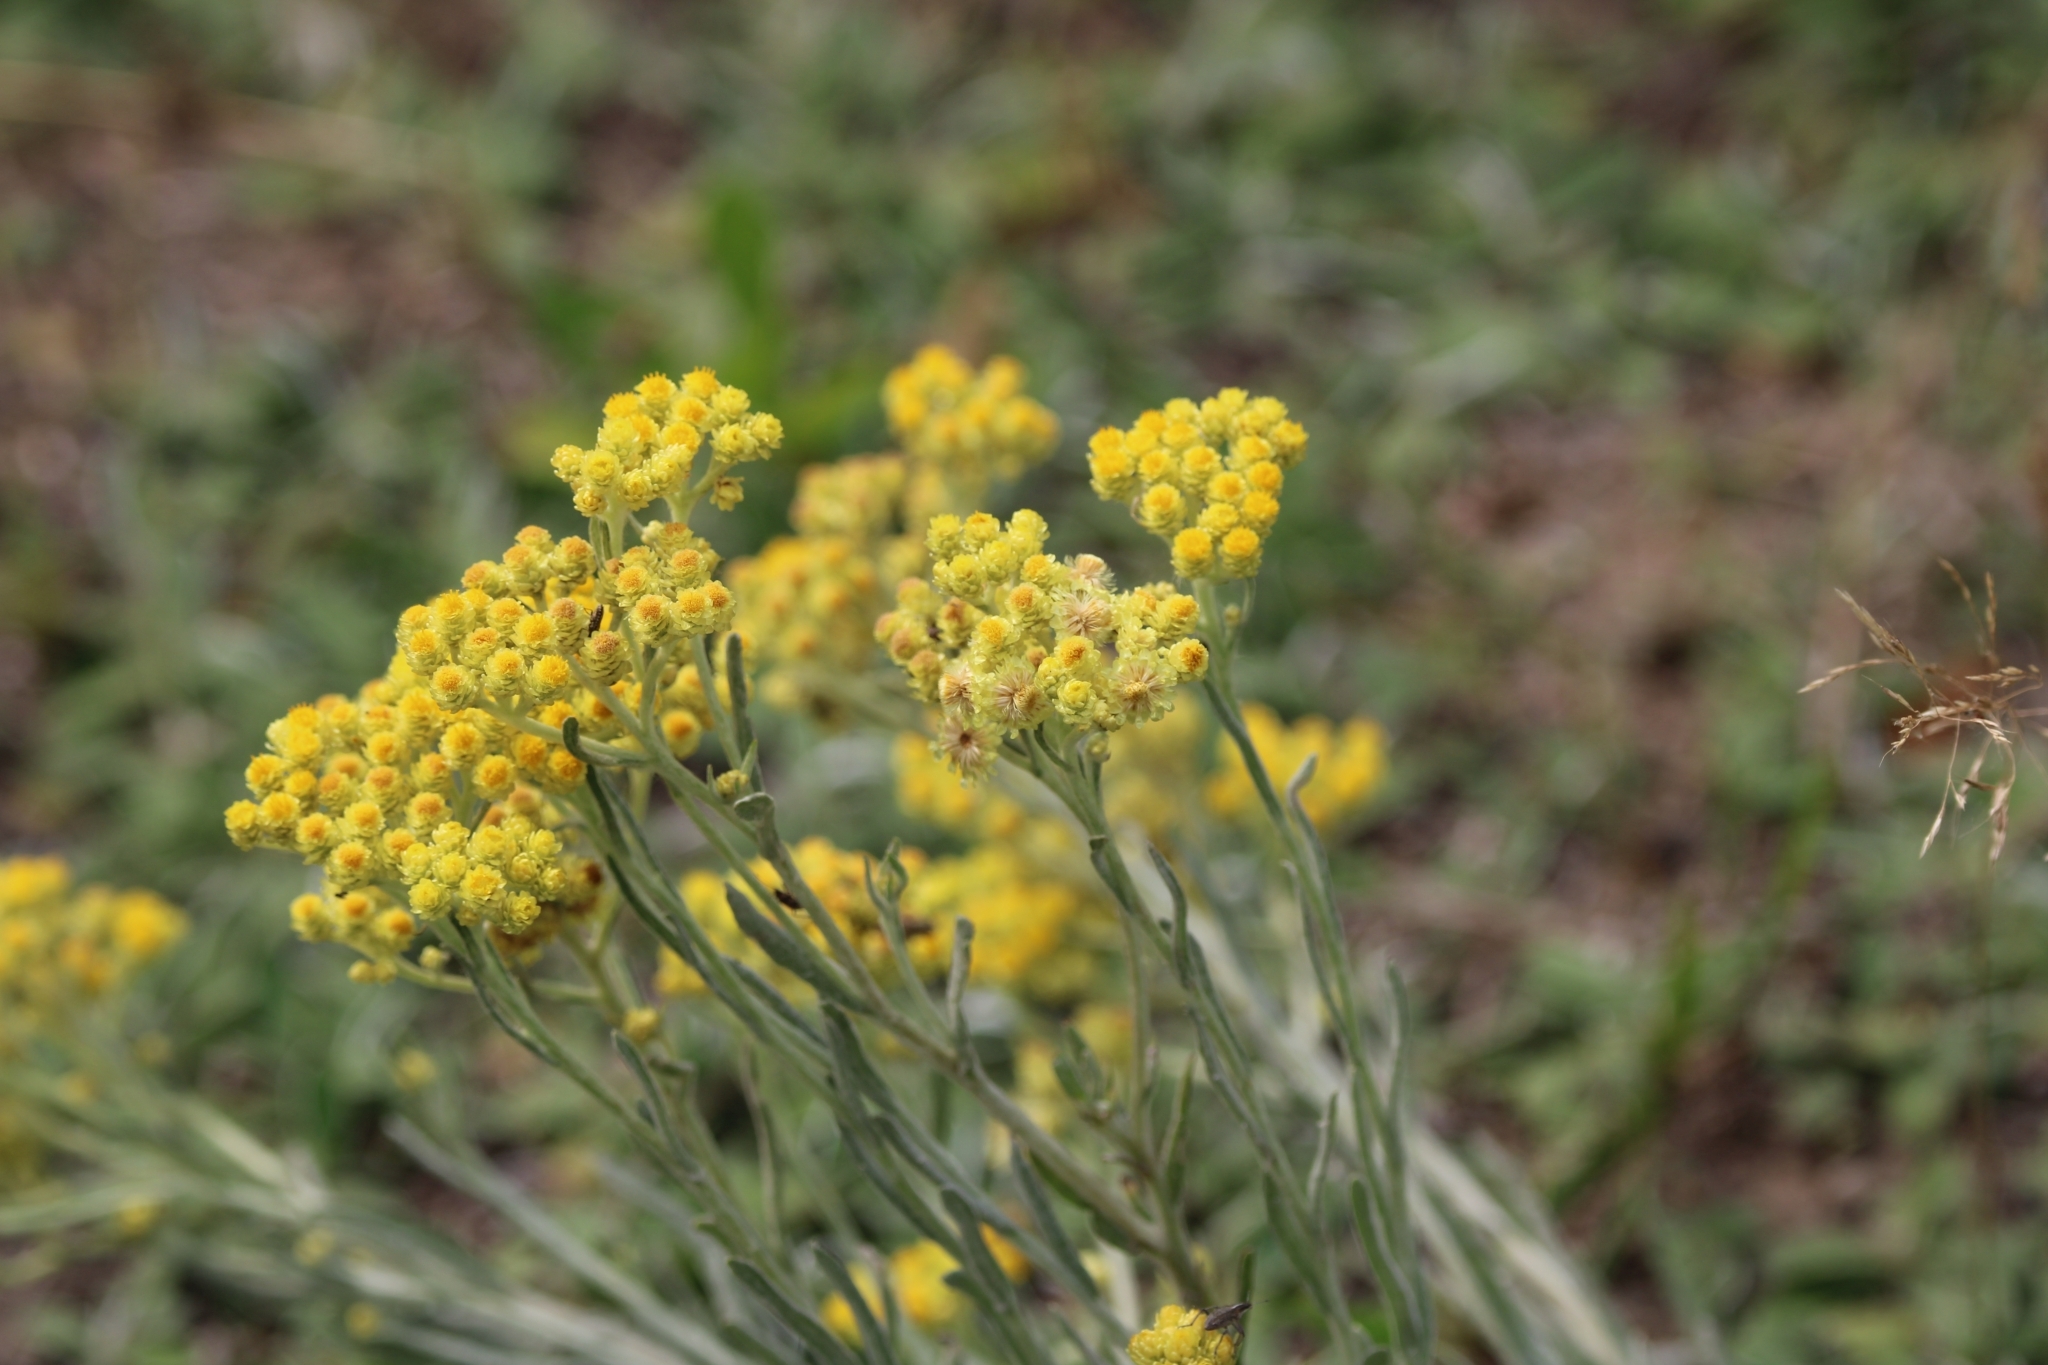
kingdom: Plantae
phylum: Tracheophyta
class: Magnoliopsida
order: Asterales
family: Asteraceae
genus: Helichrysum
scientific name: Helichrysum arenarium
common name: Strawflower
